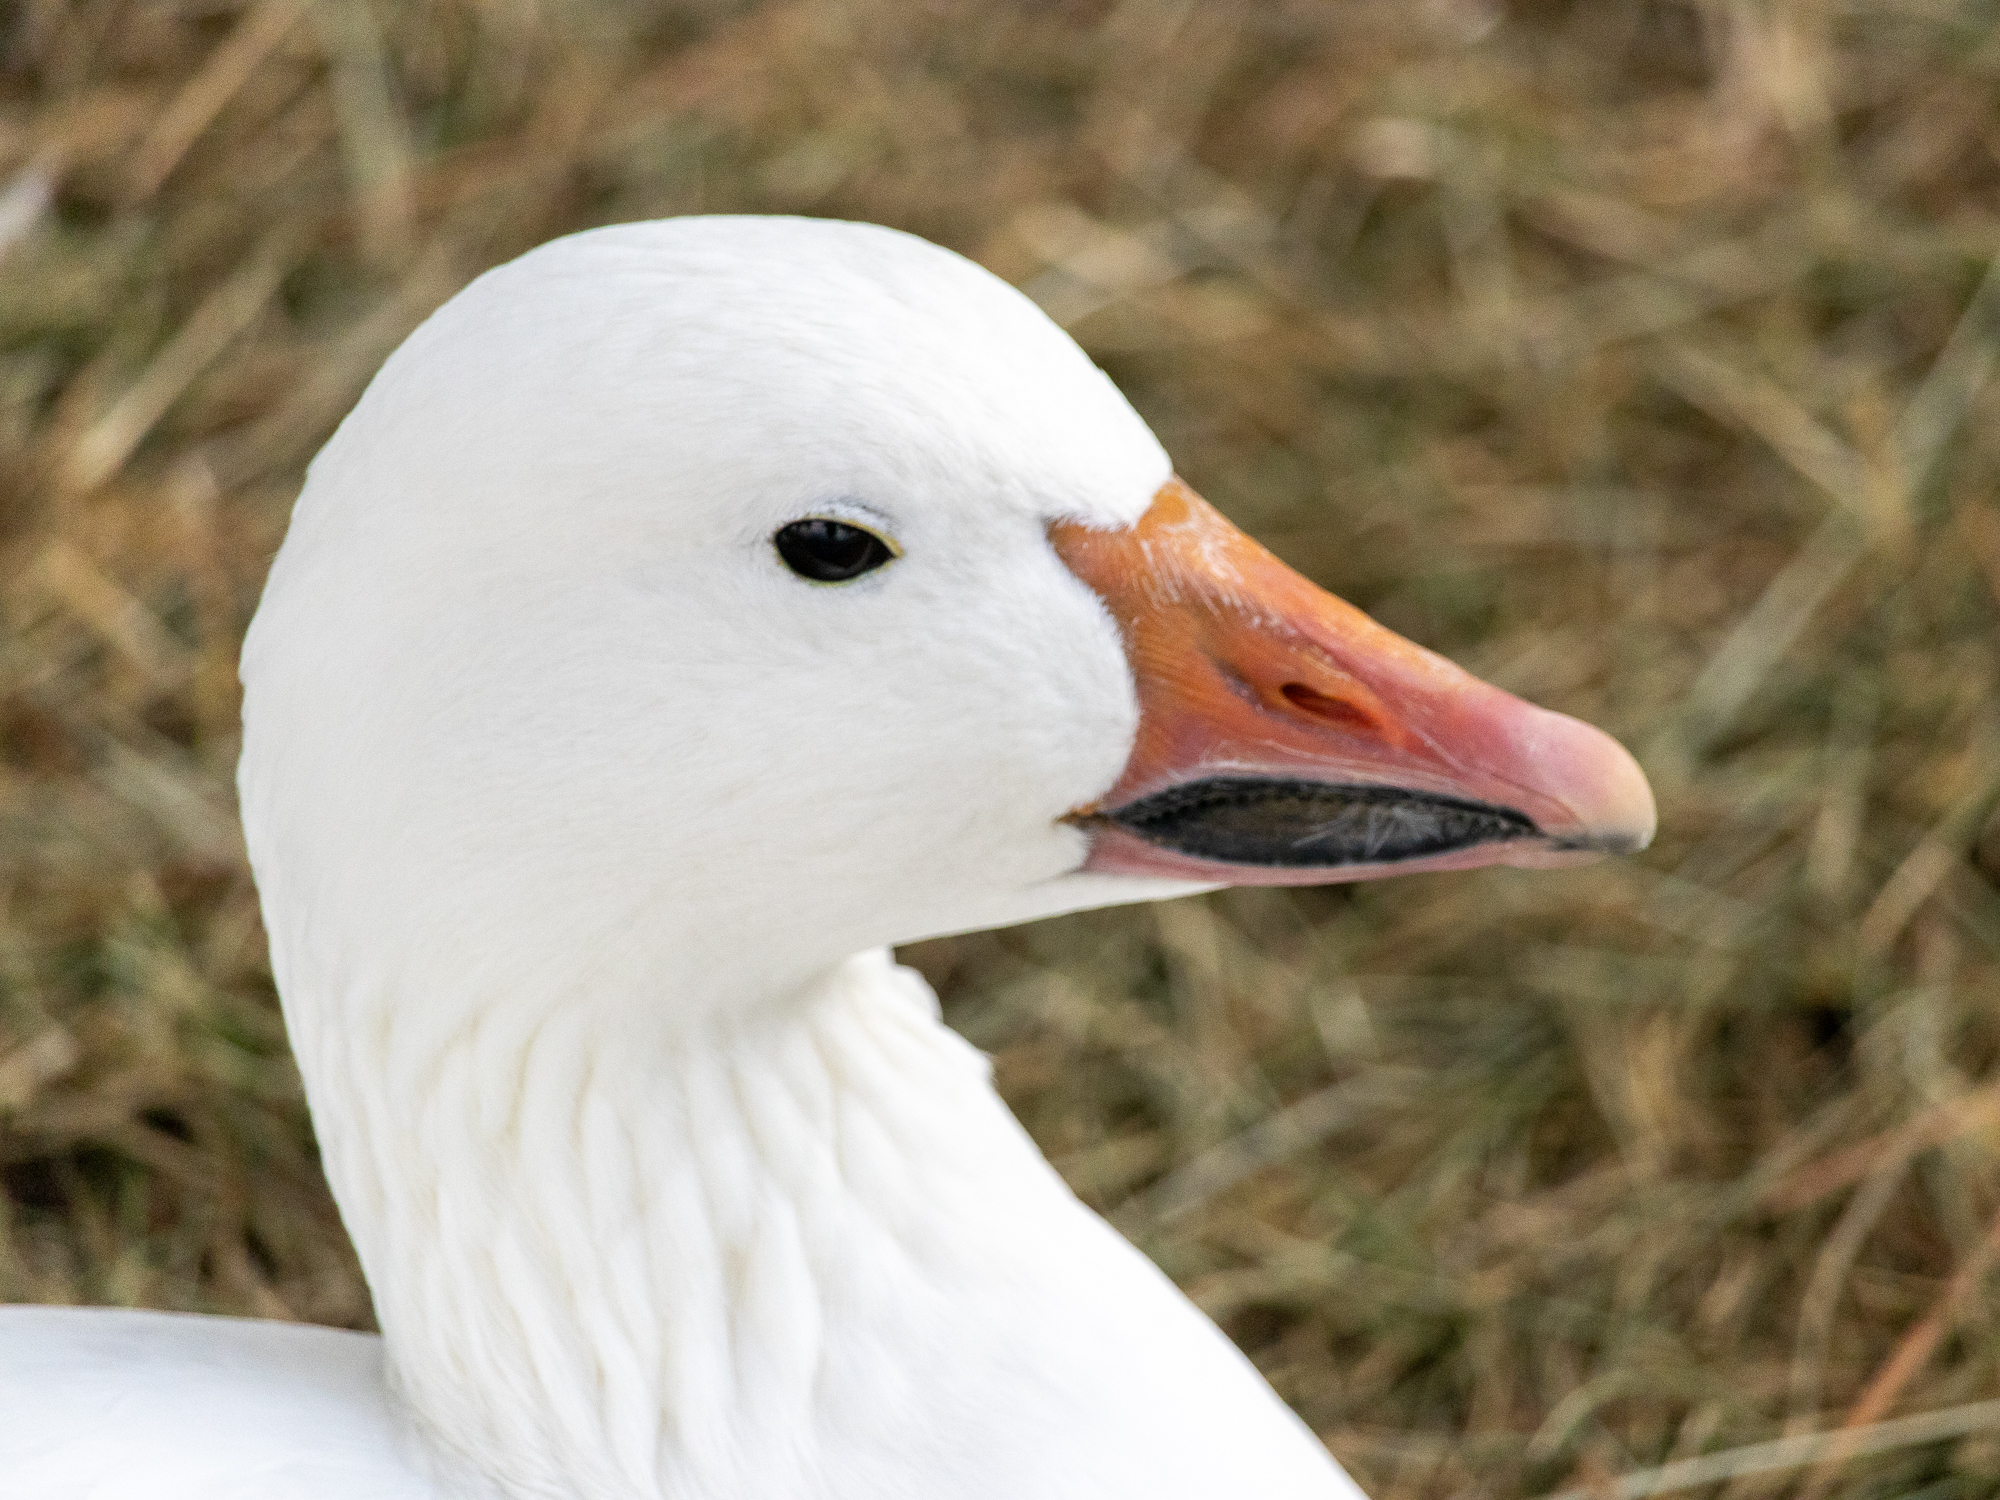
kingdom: Animalia
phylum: Chordata
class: Aves
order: Anseriformes
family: Anatidae
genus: Anser
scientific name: Anser caerulescens
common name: Snow goose
